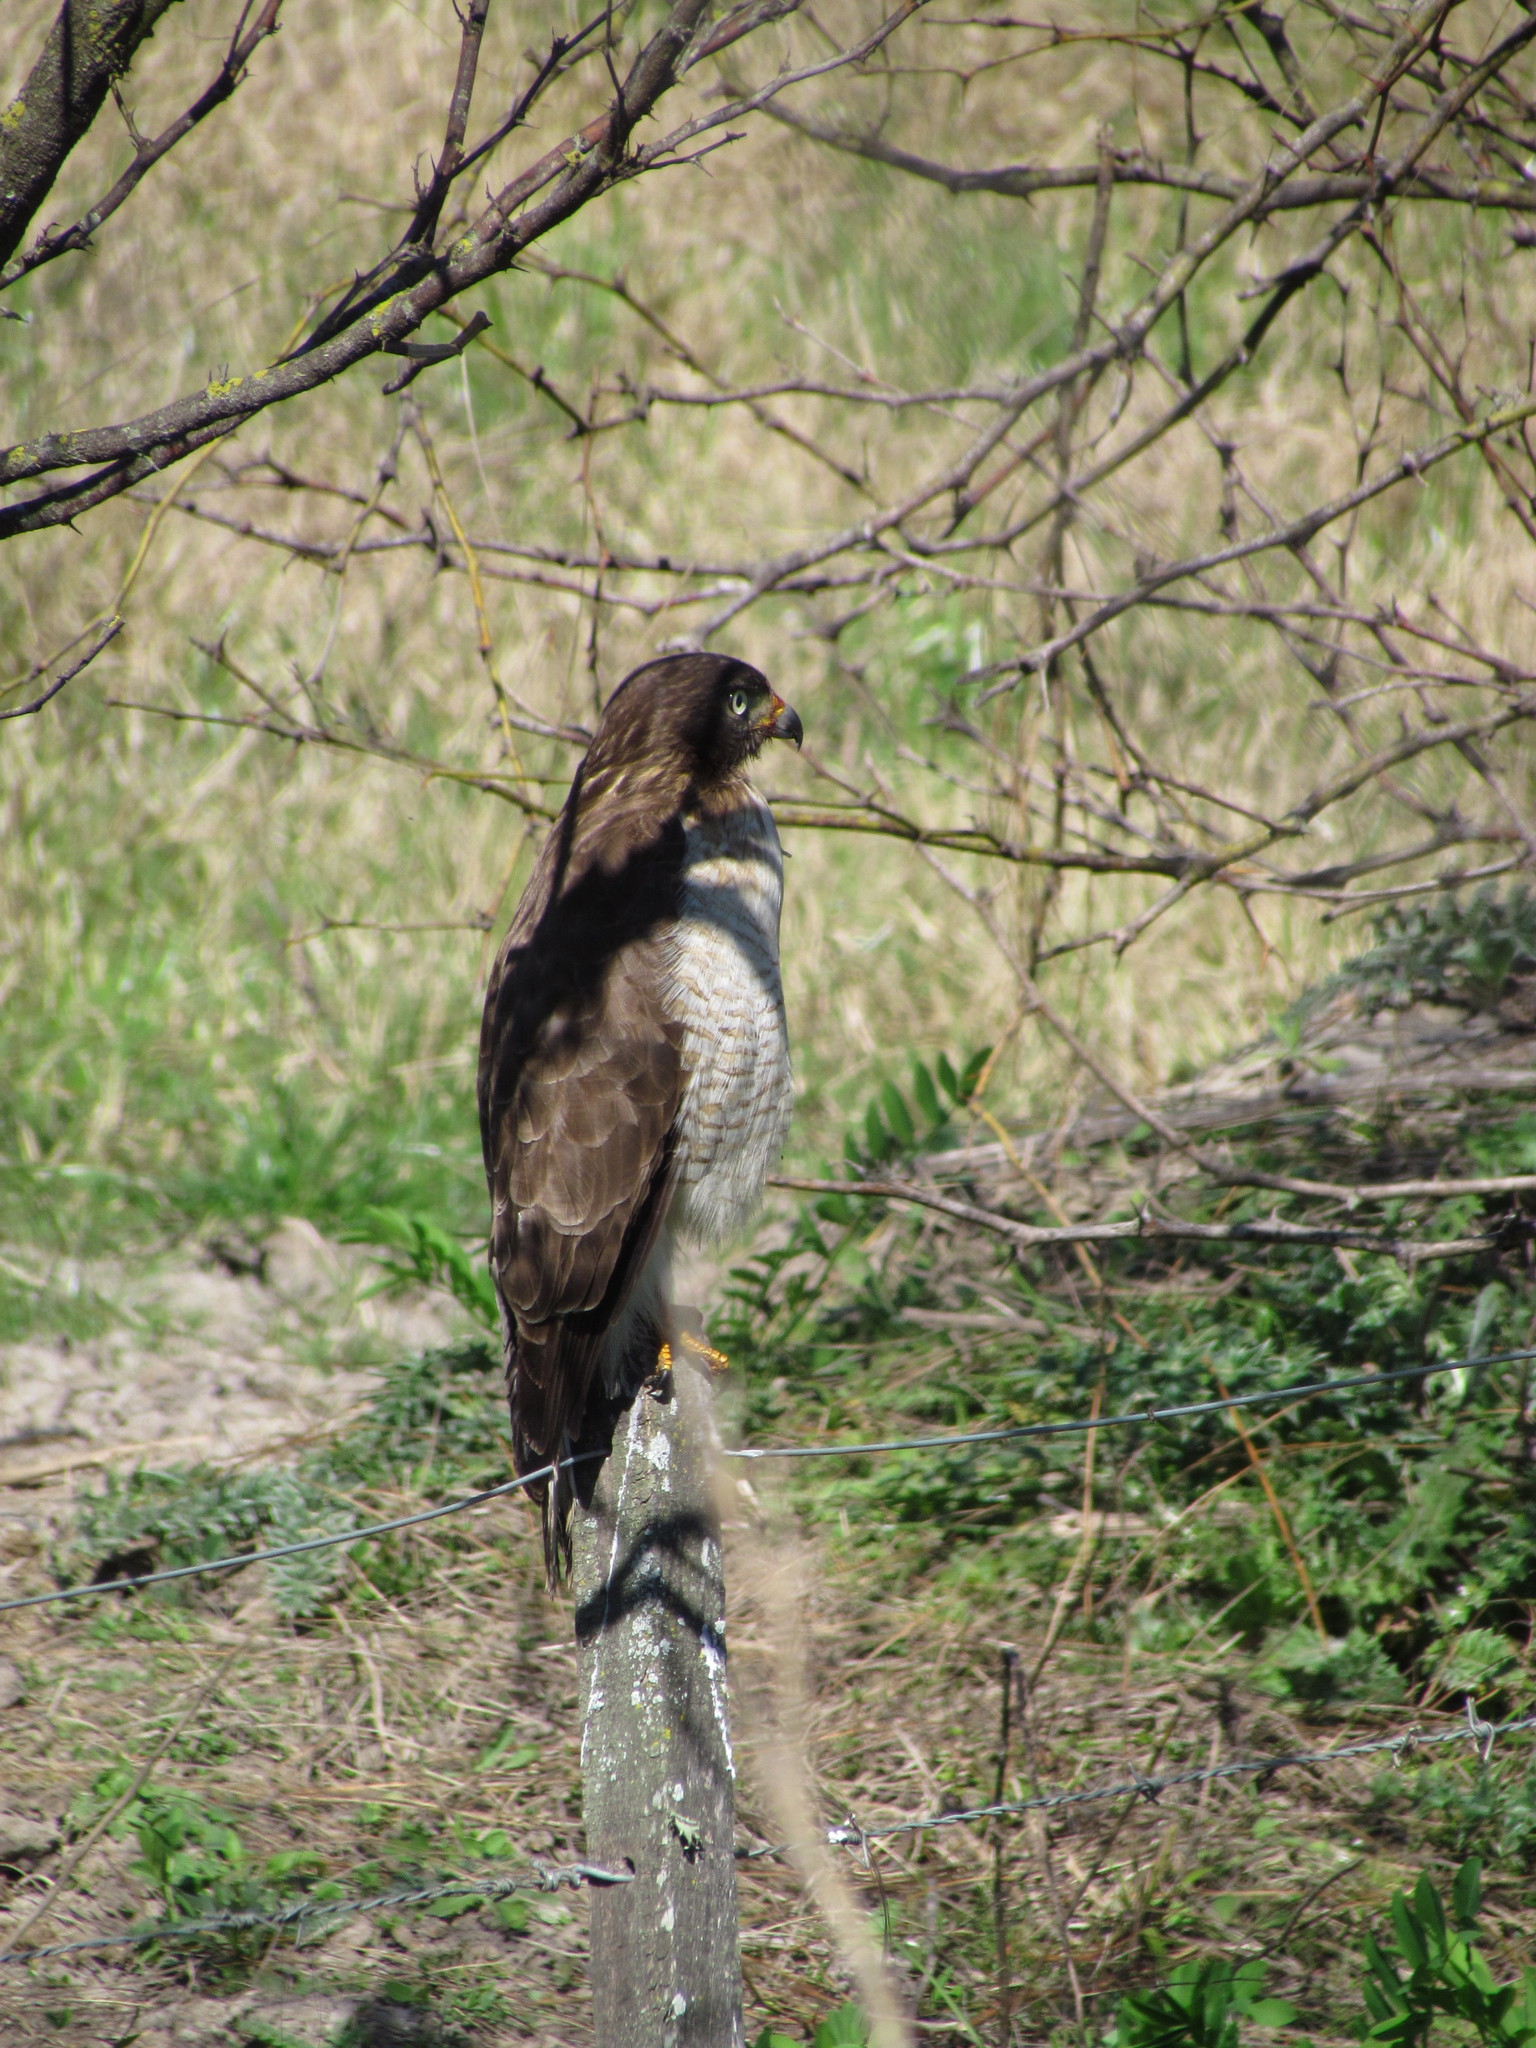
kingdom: Animalia
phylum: Chordata
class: Aves
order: Accipitriformes
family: Accipitridae
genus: Rupornis
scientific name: Rupornis magnirostris
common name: Roadside hawk
